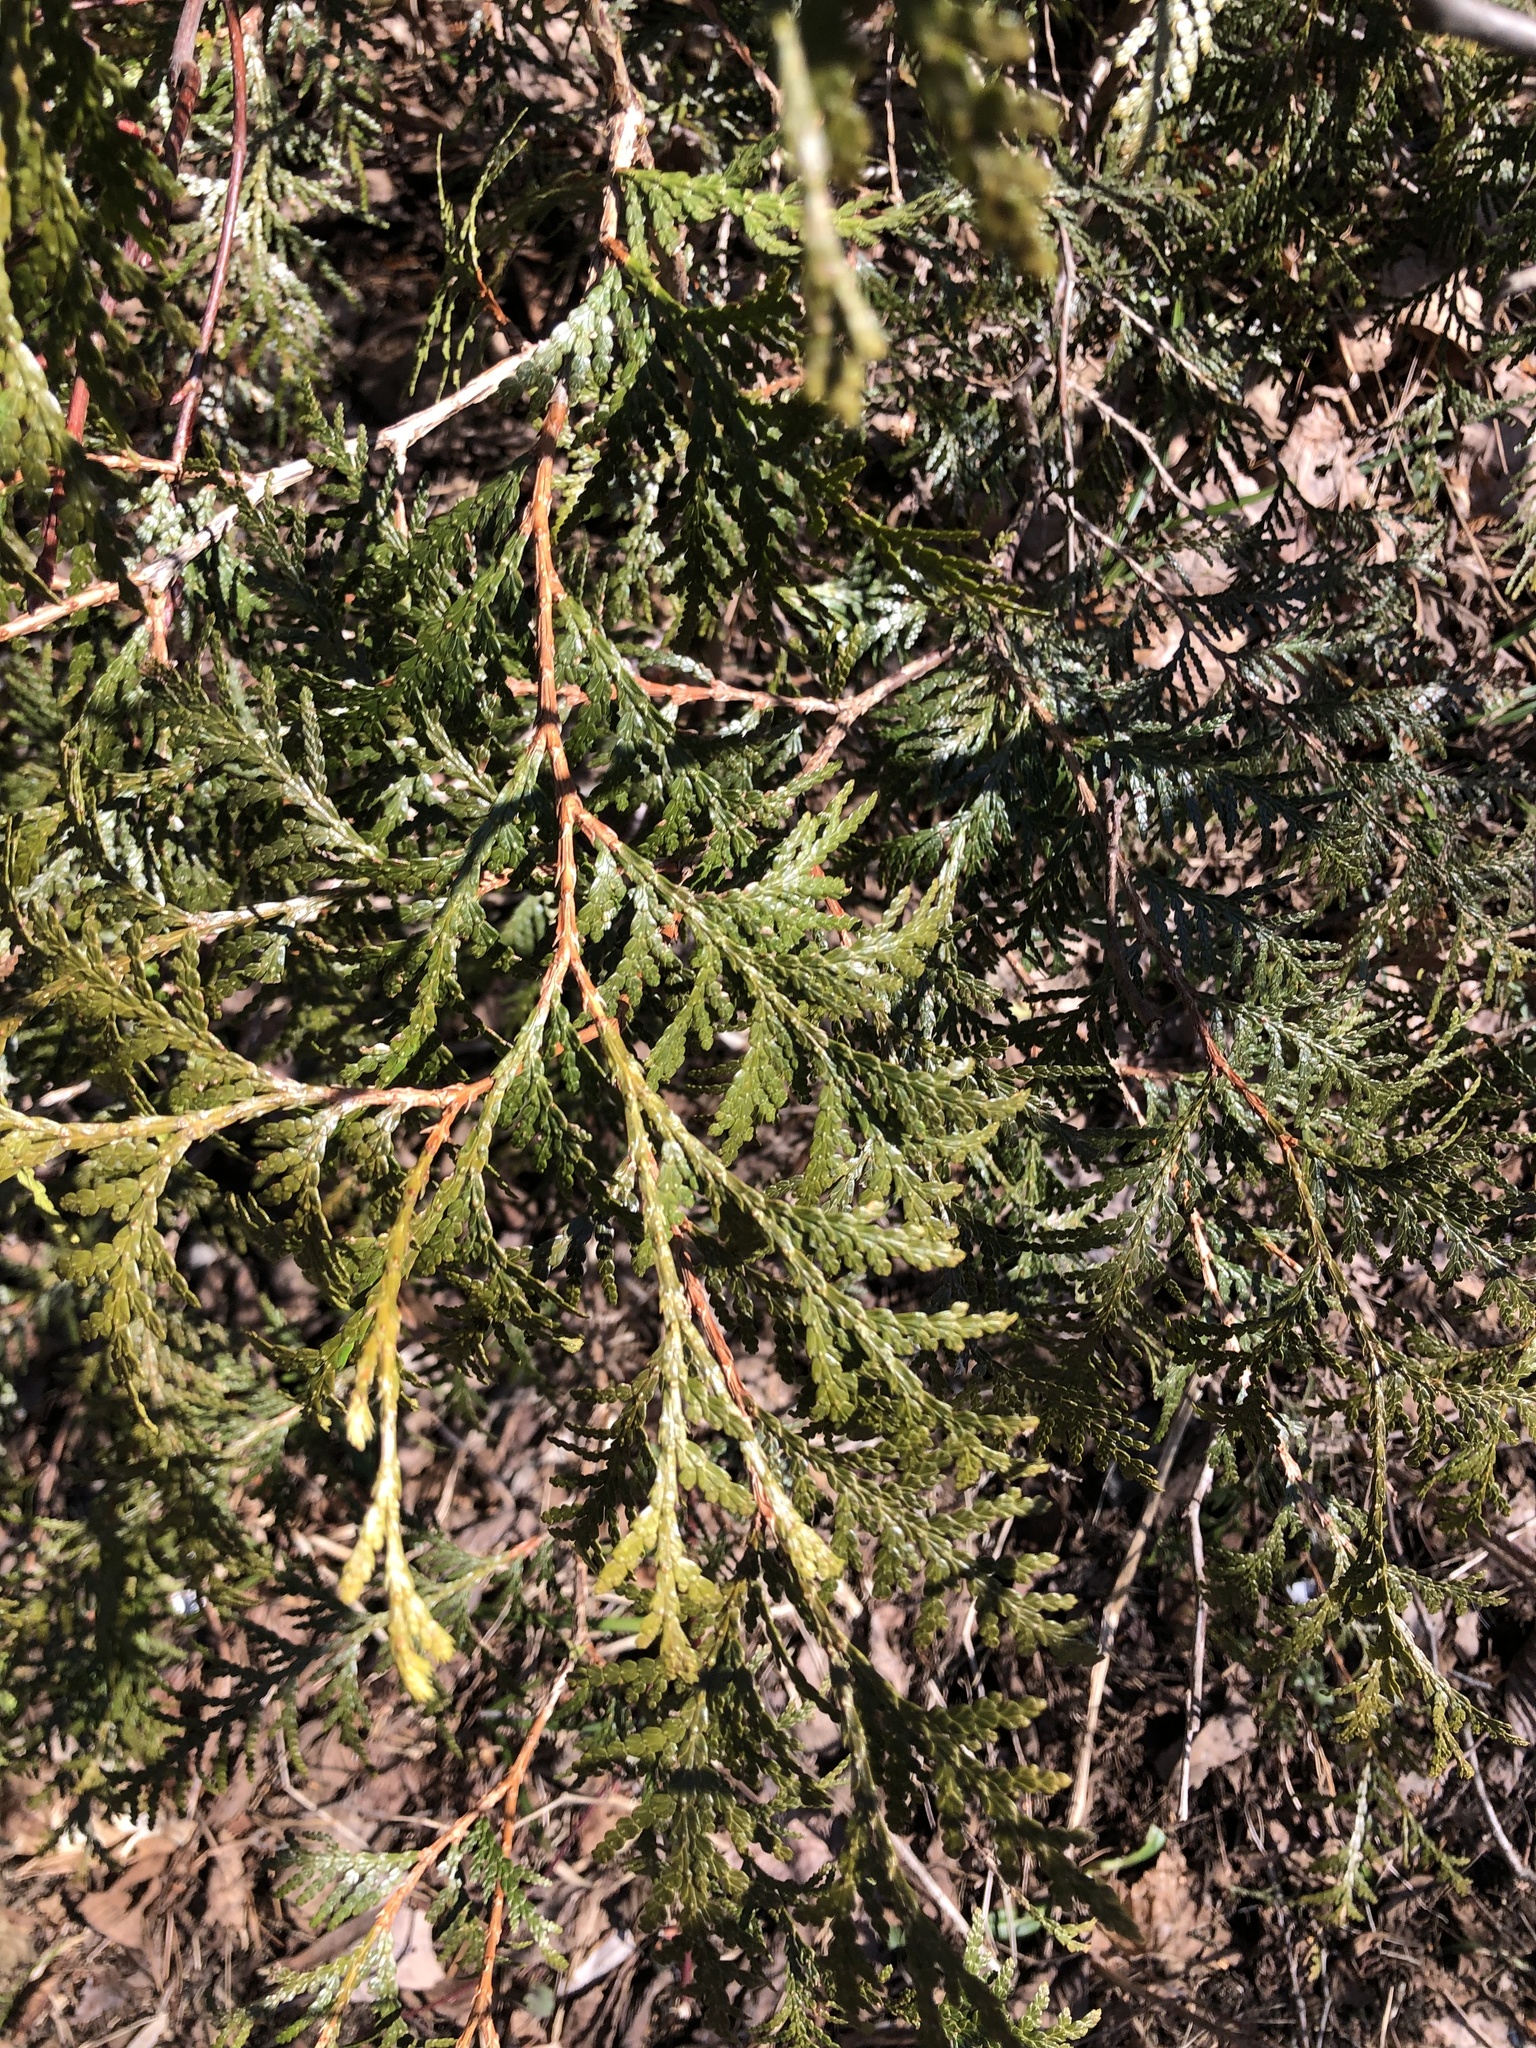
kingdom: Plantae
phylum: Tracheophyta
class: Pinopsida
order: Pinales
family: Cupressaceae
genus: Thuja
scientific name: Thuja occidentalis
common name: Northern white-cedar
